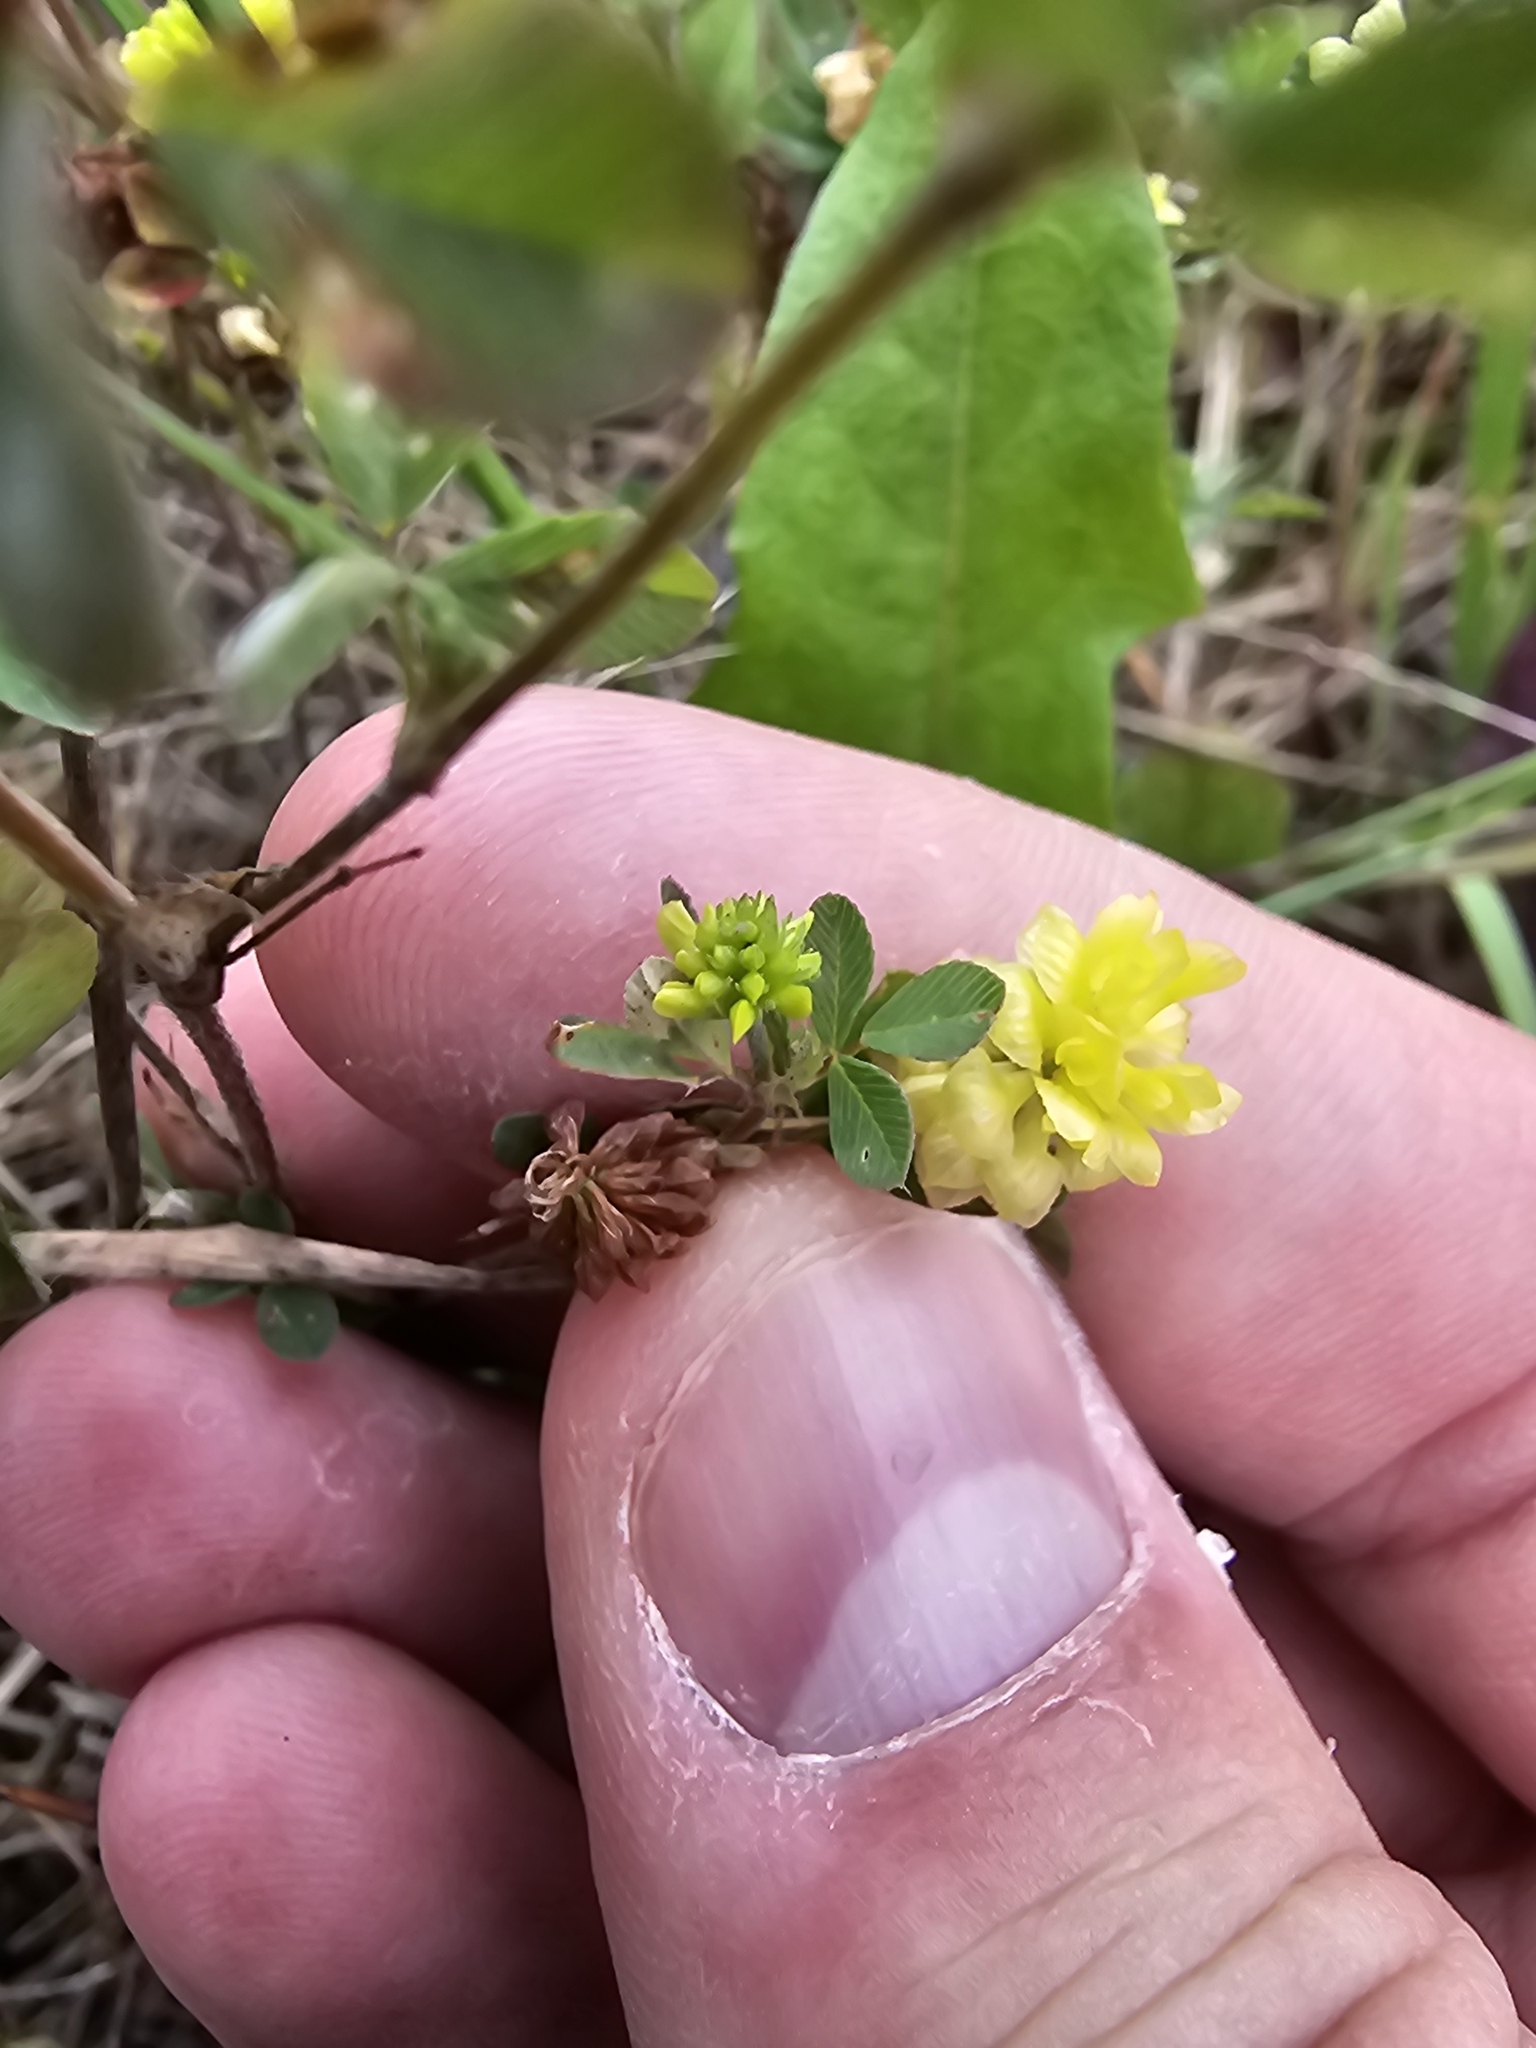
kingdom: Plantae
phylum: Tracheophyta
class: Magnoliopsida
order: Fabales
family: Fabaceae
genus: Trifolium
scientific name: Trifolium campestre
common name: Field clover
